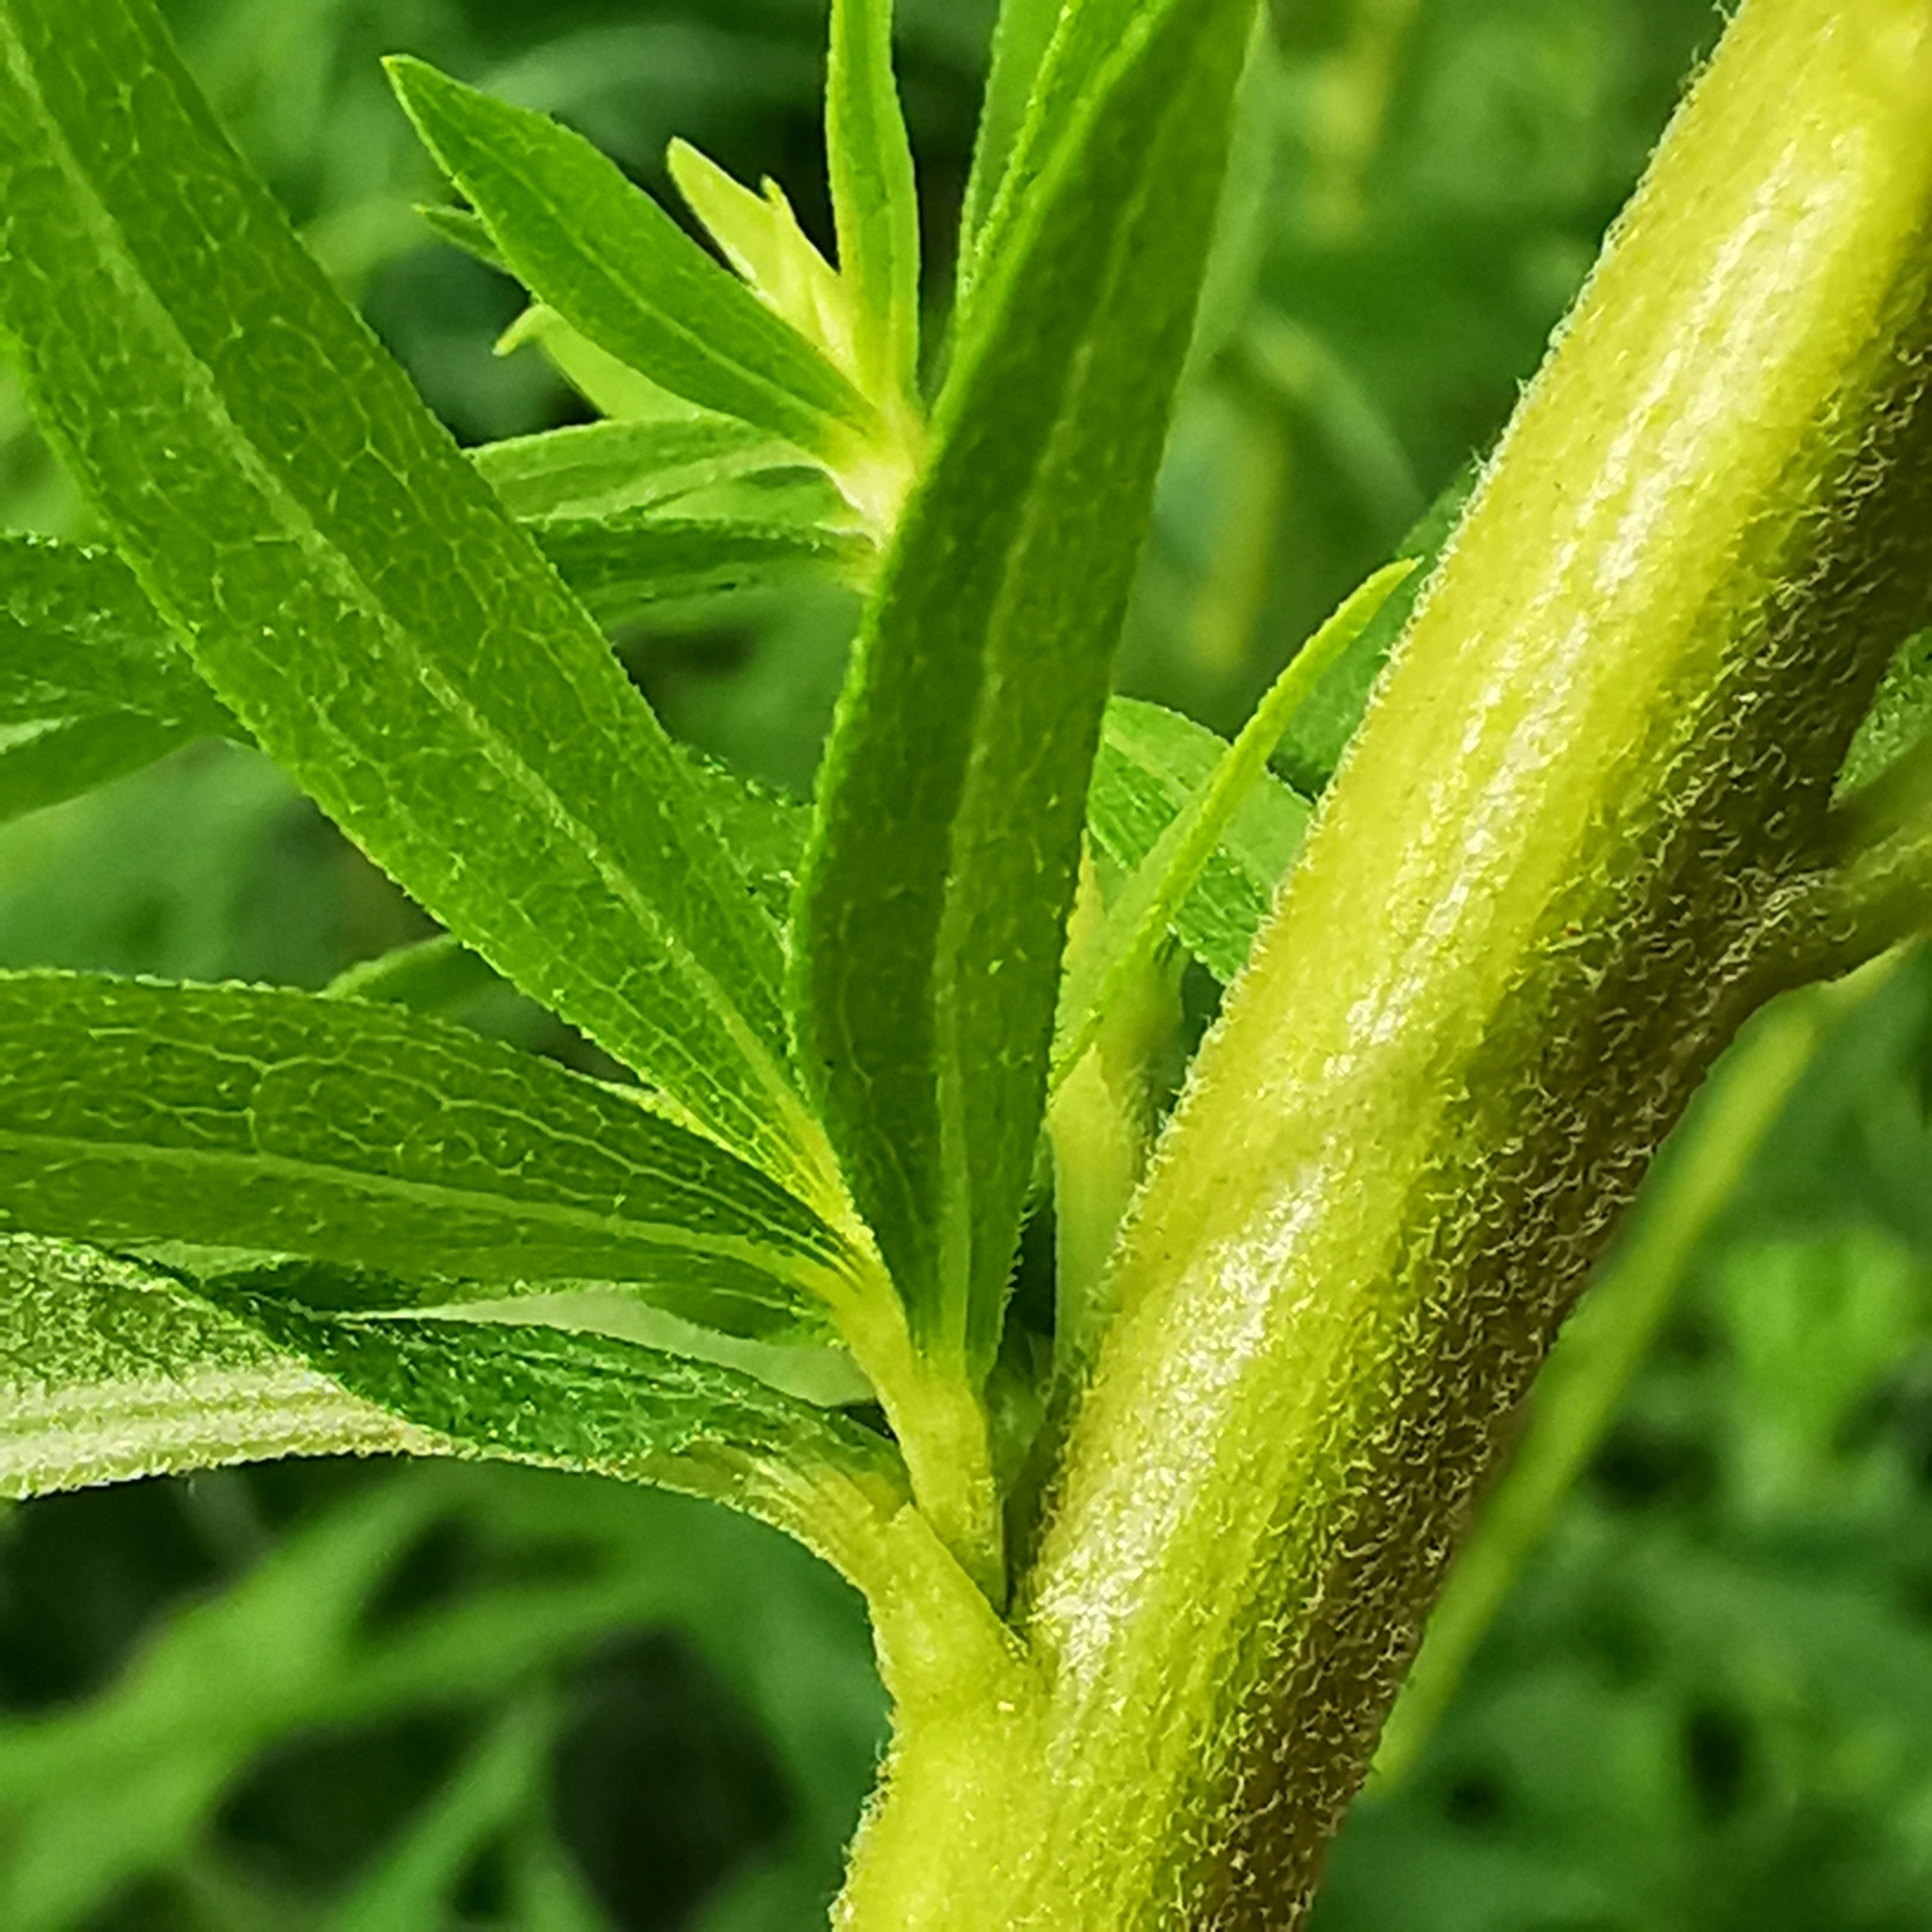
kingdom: Plantae
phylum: Tracheophyta
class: Magnoliopsida
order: Asterales
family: Asteraceae
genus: Solidago
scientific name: Solidago canadensis
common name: Canada goldenrod
